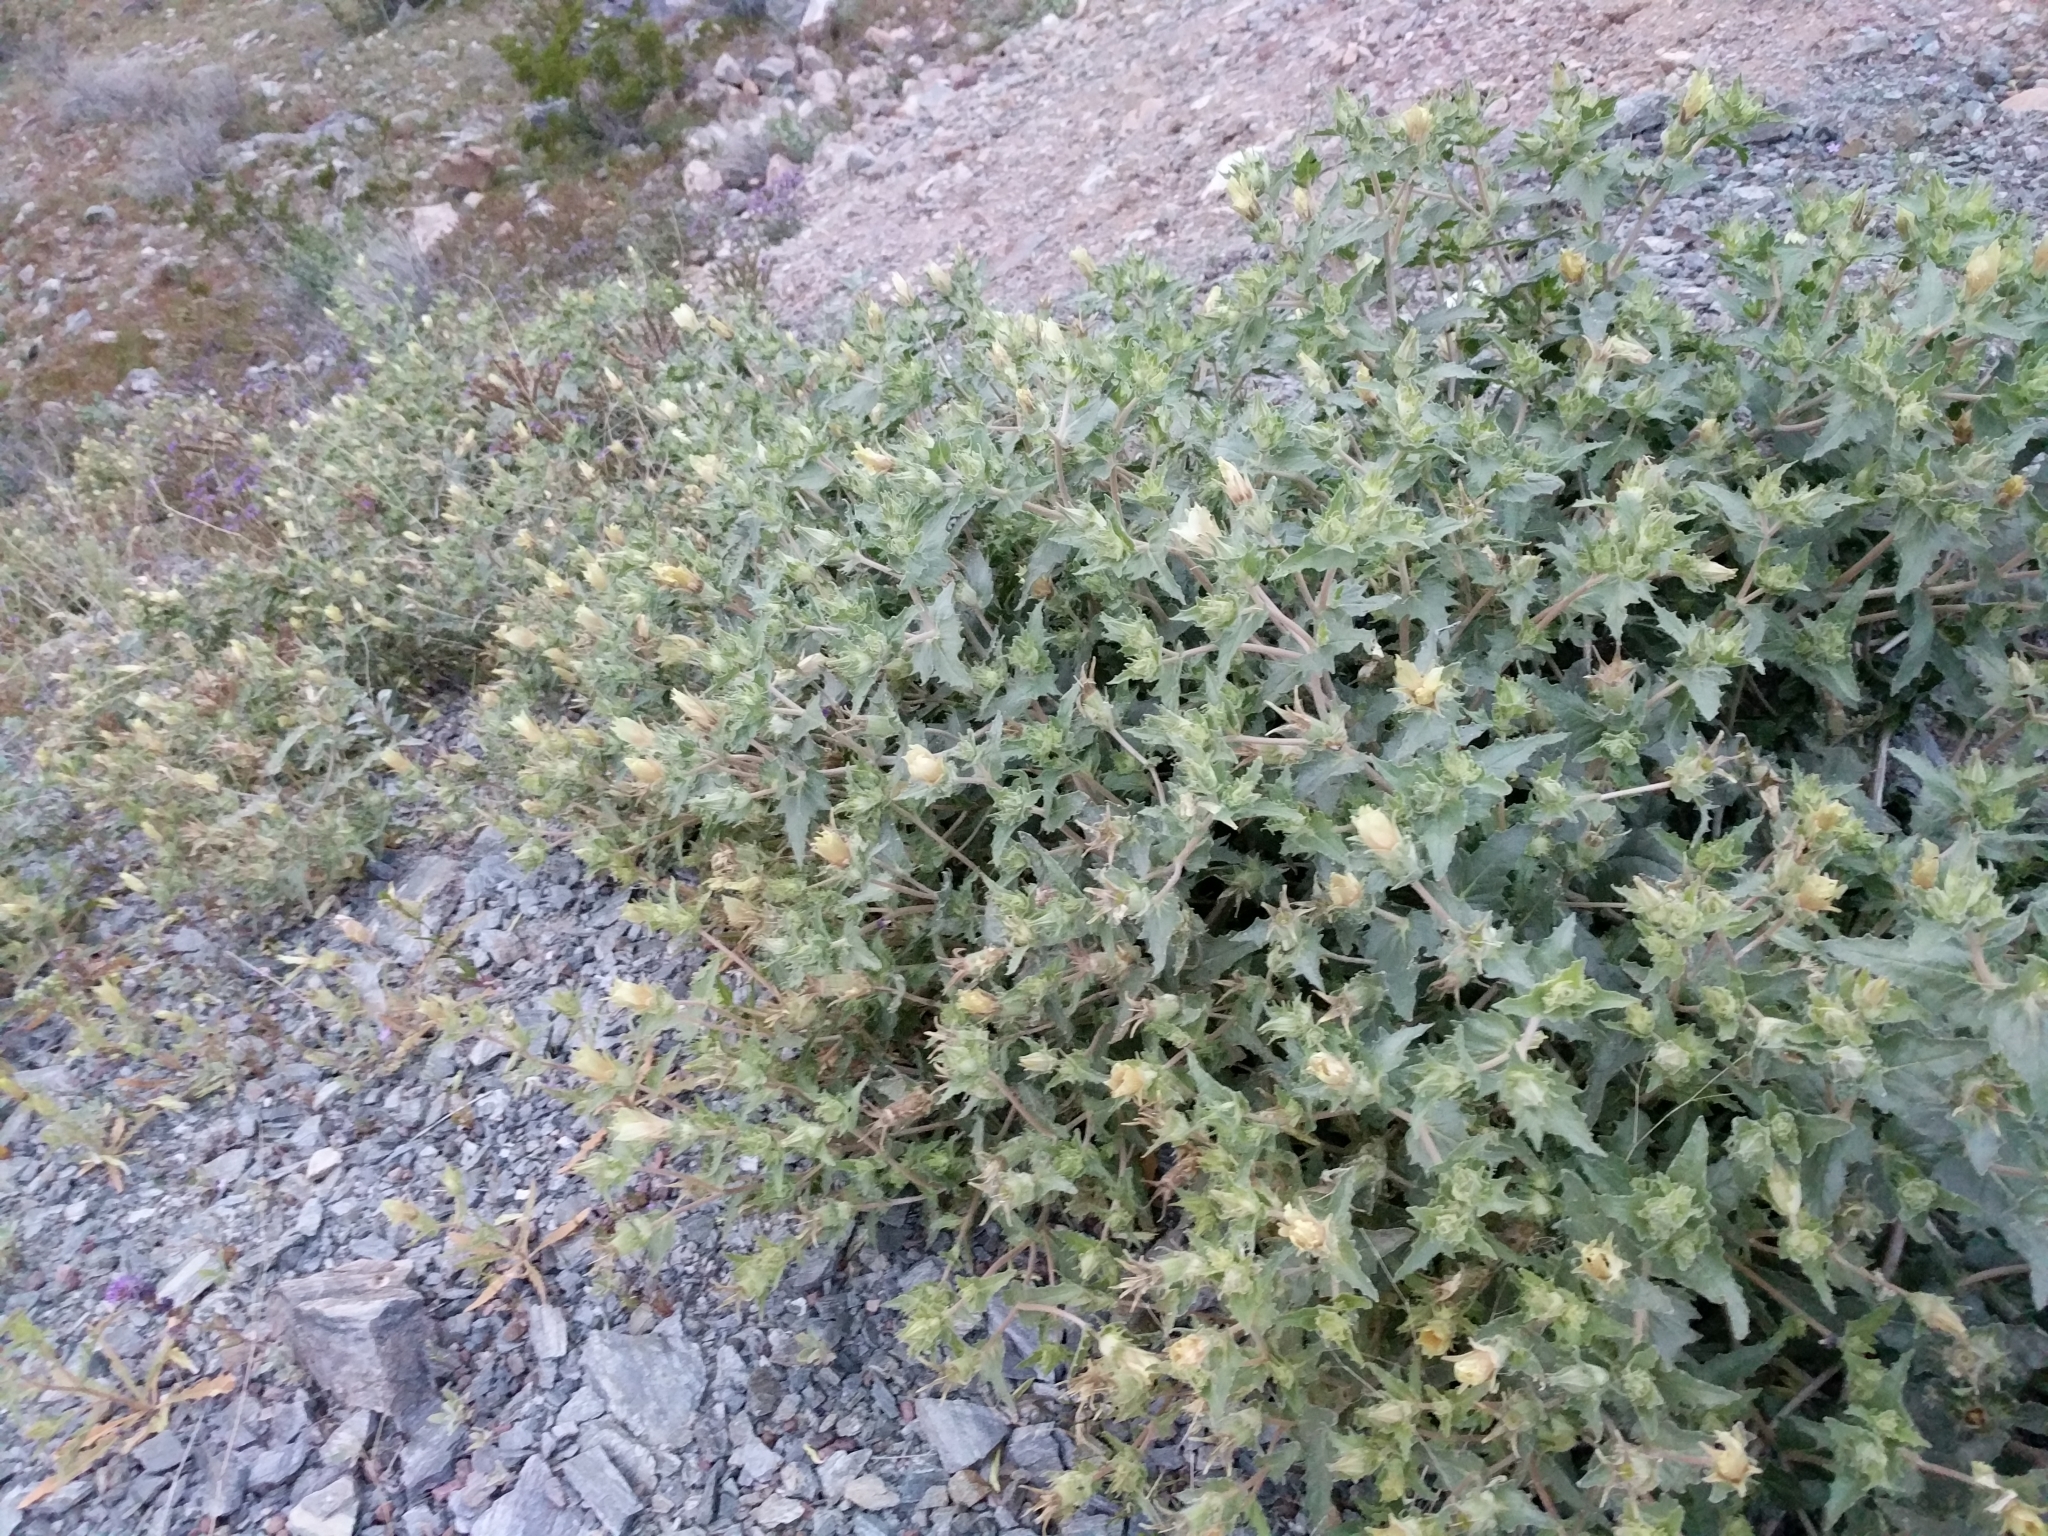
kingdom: Plantae
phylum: Tracheophyta
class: Magnoliopsida
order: Cornales
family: Loasaceae
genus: Mentzelia
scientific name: Mentzelia involucrata
